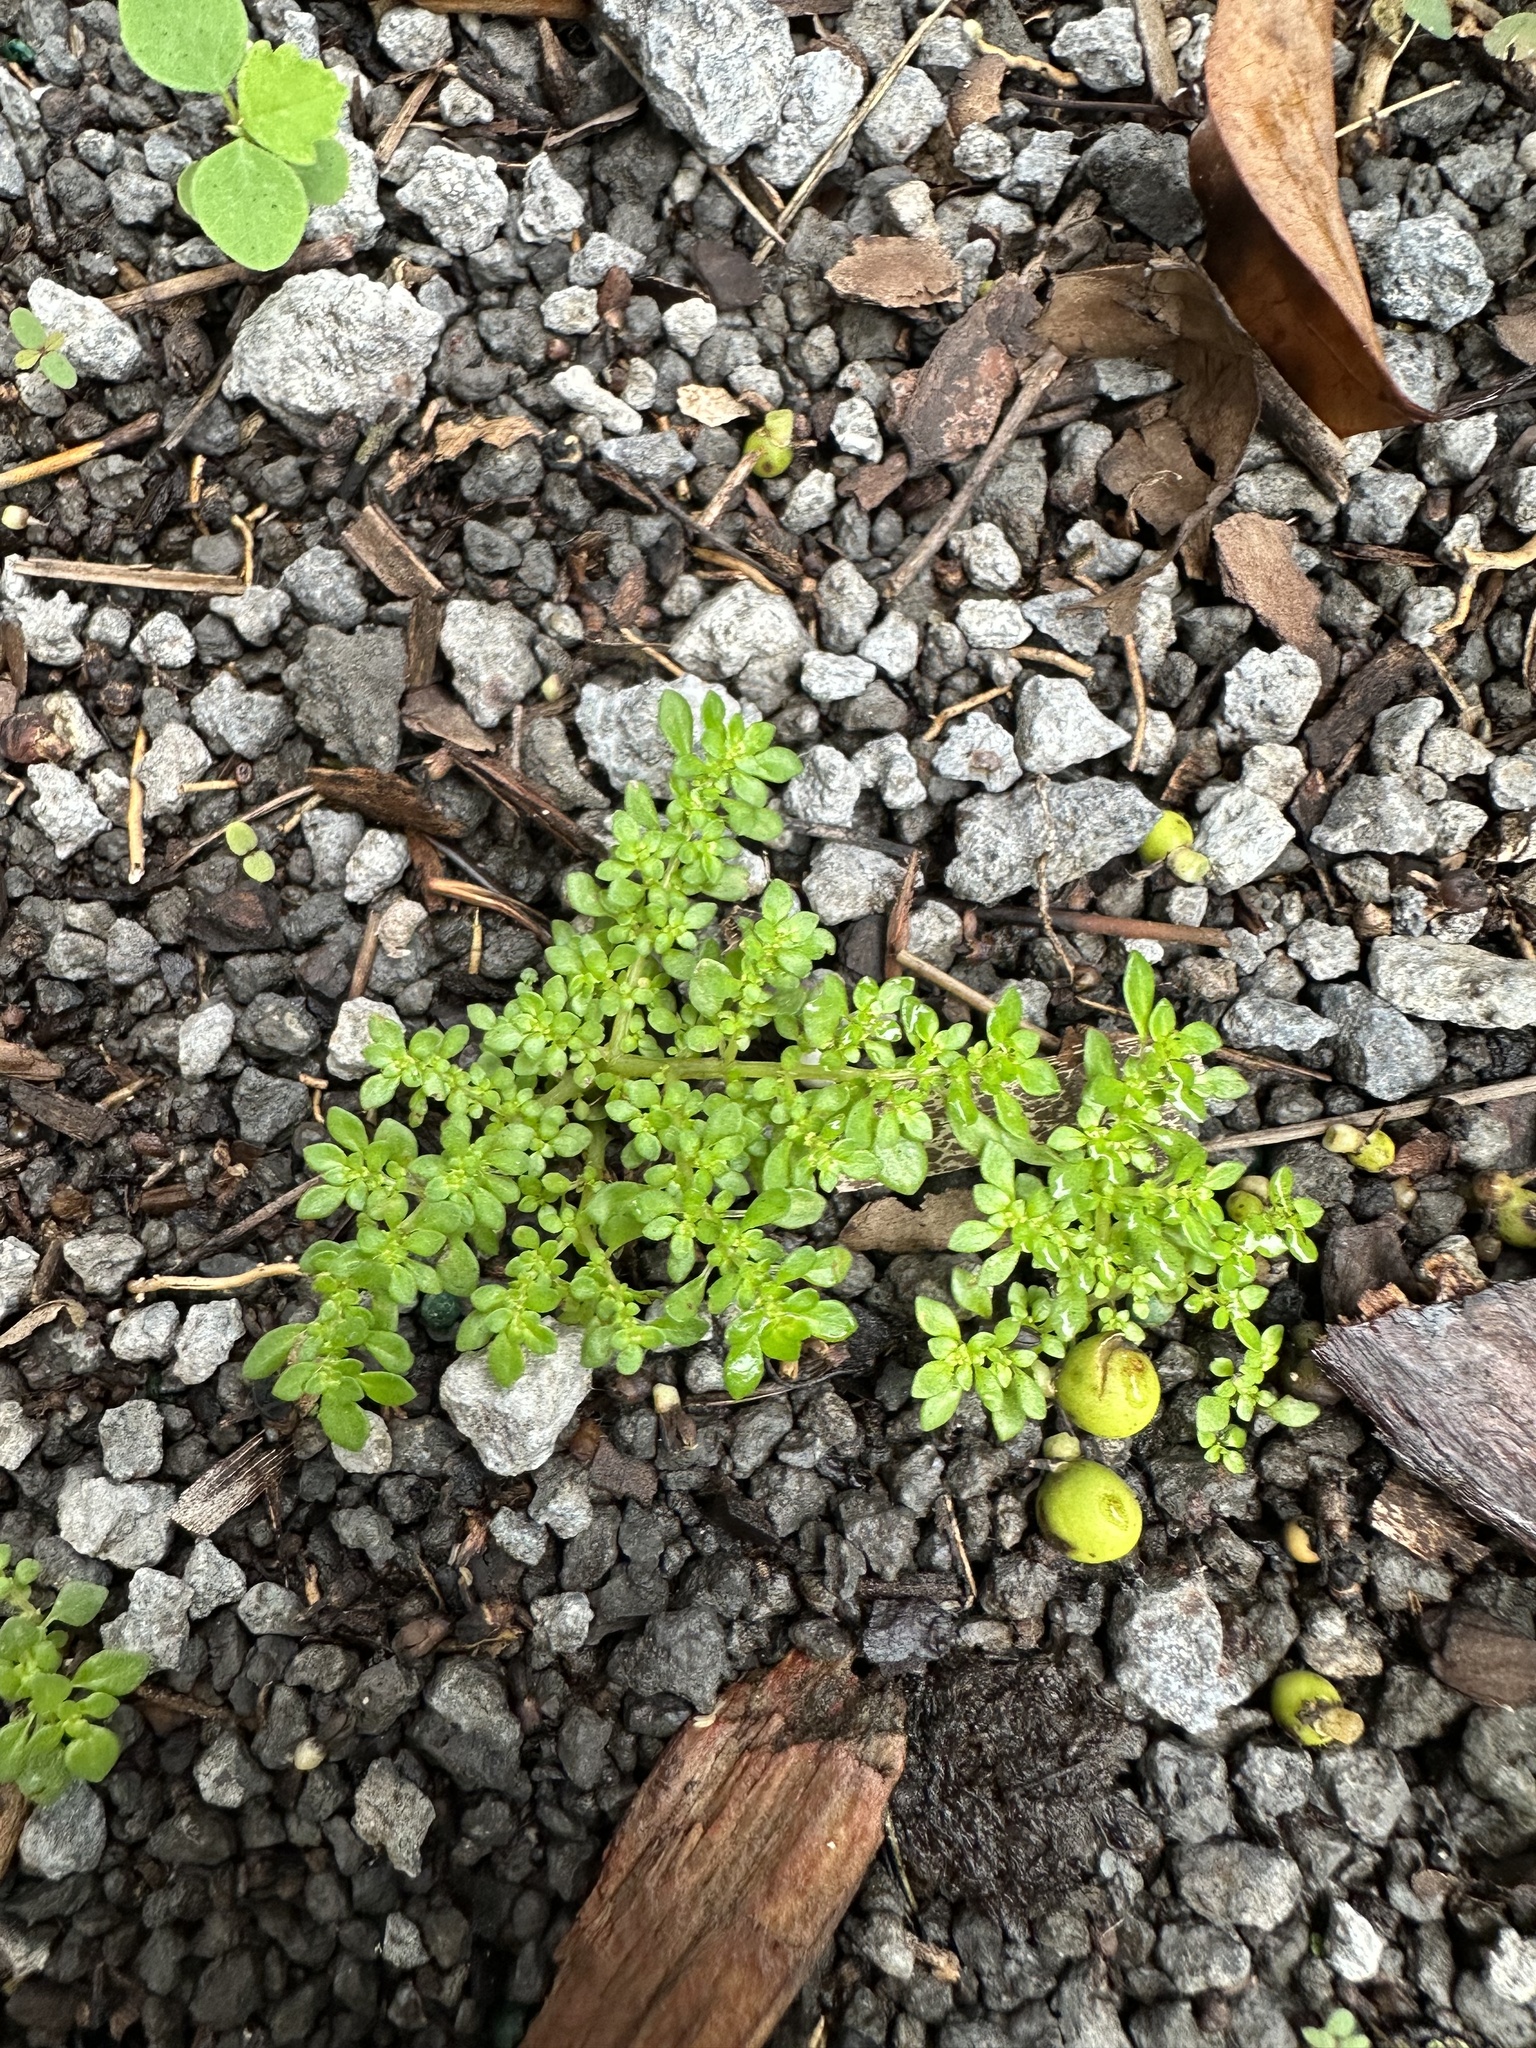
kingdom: Plantae
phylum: Tracheophyta
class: Magnoliopsida
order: Rosales
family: Urticaceae
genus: Pilea
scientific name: Pilea microphylla
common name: Artillery-plant
